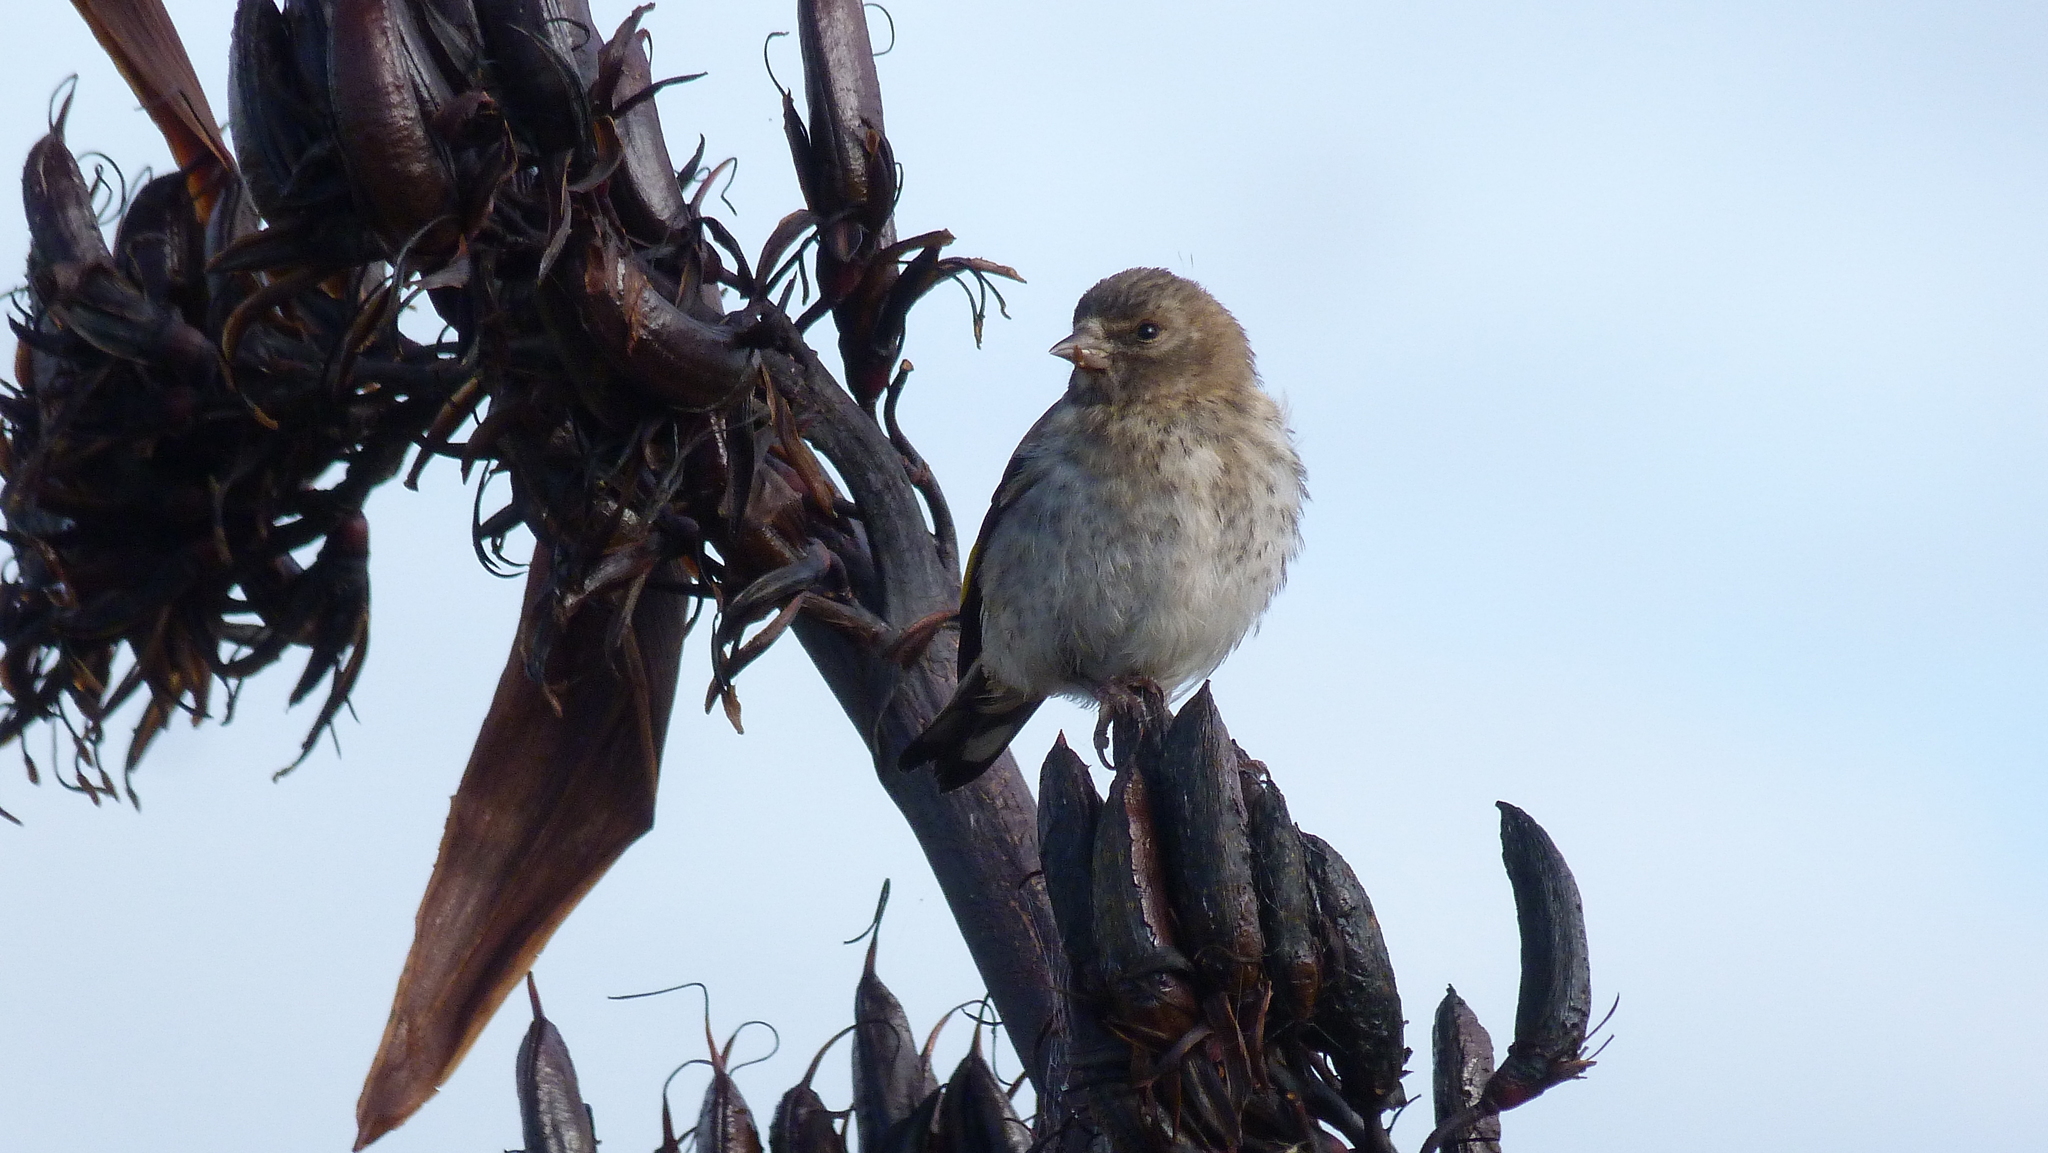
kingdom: Animalia
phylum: Chordata
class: Aves
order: Passeriformes
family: Fringillidae
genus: Carduelis
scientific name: Carduelis carduelis
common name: European goldfinch
